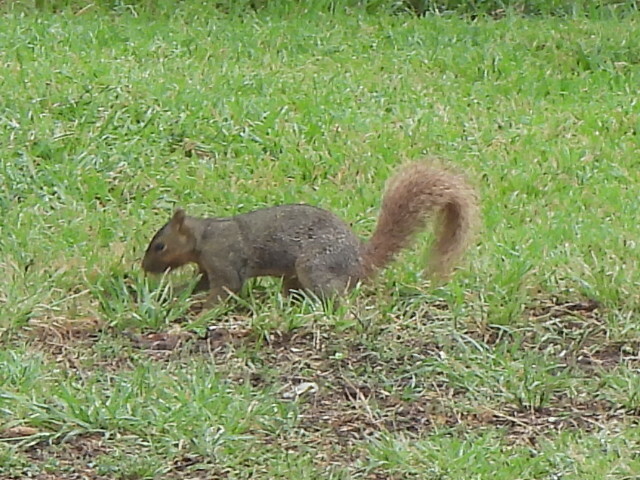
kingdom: Animalia
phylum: Chordata
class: Mammalia
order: Rodentia
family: Sciuridae
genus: Sciurus
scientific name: Sciurus niger
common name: Fox squirrel
